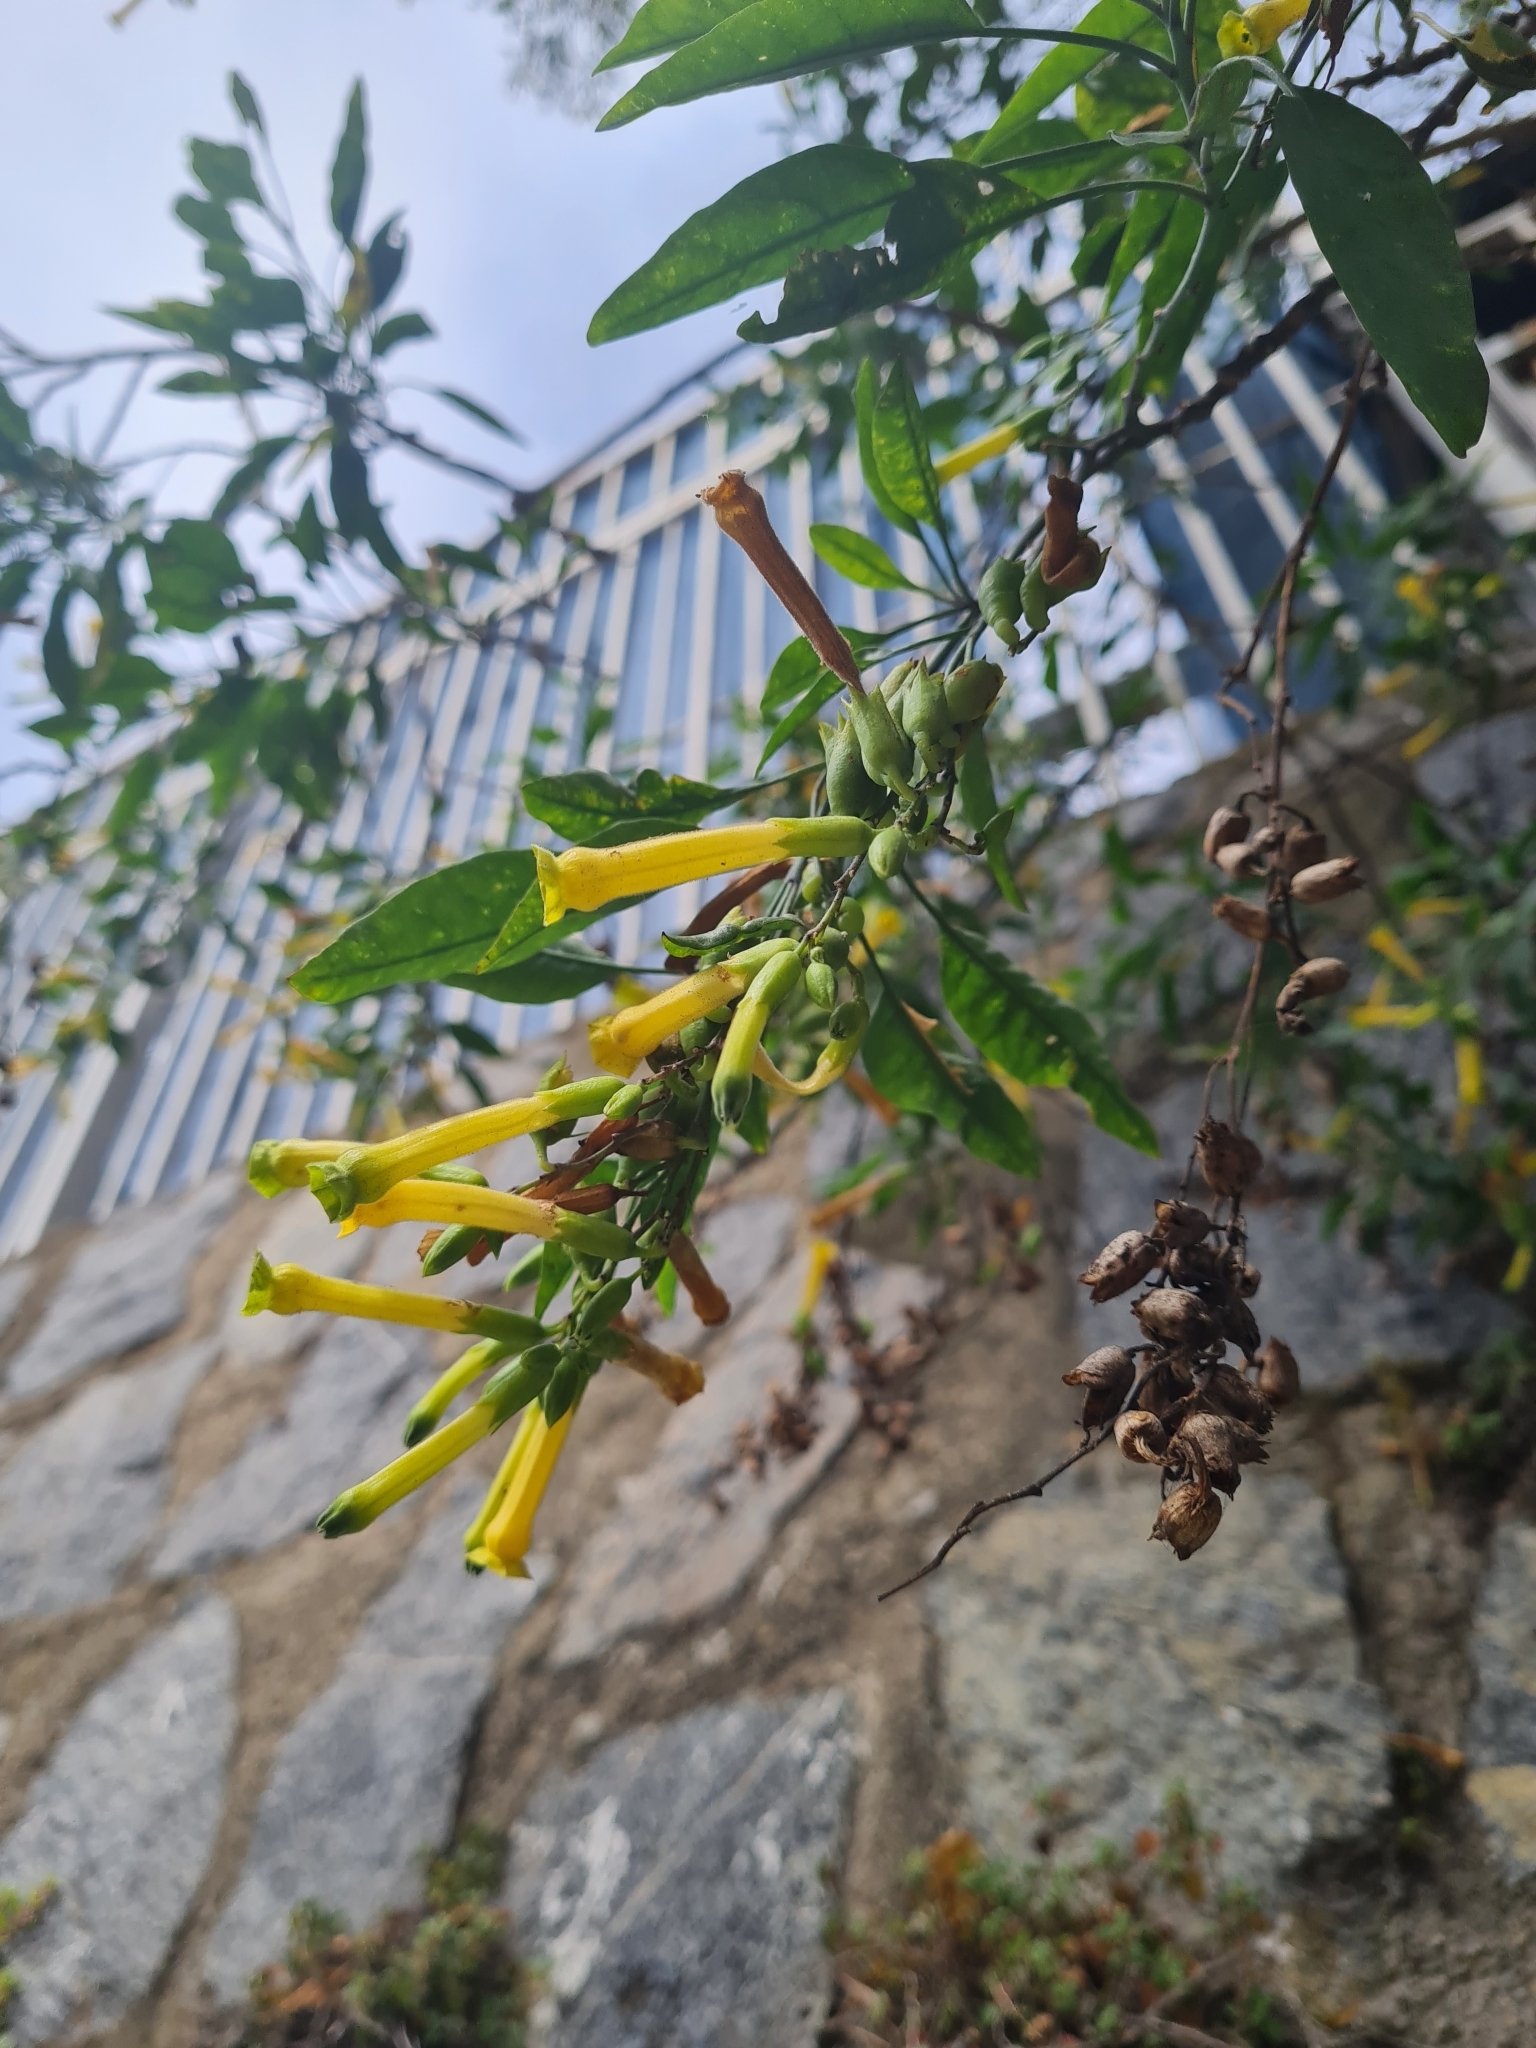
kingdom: Plantae
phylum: Tracheophyta
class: Magnoliopsida
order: Solanales
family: Solanaceae
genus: Nicotiana
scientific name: Nicotiana glauca
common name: Tree tobacco
